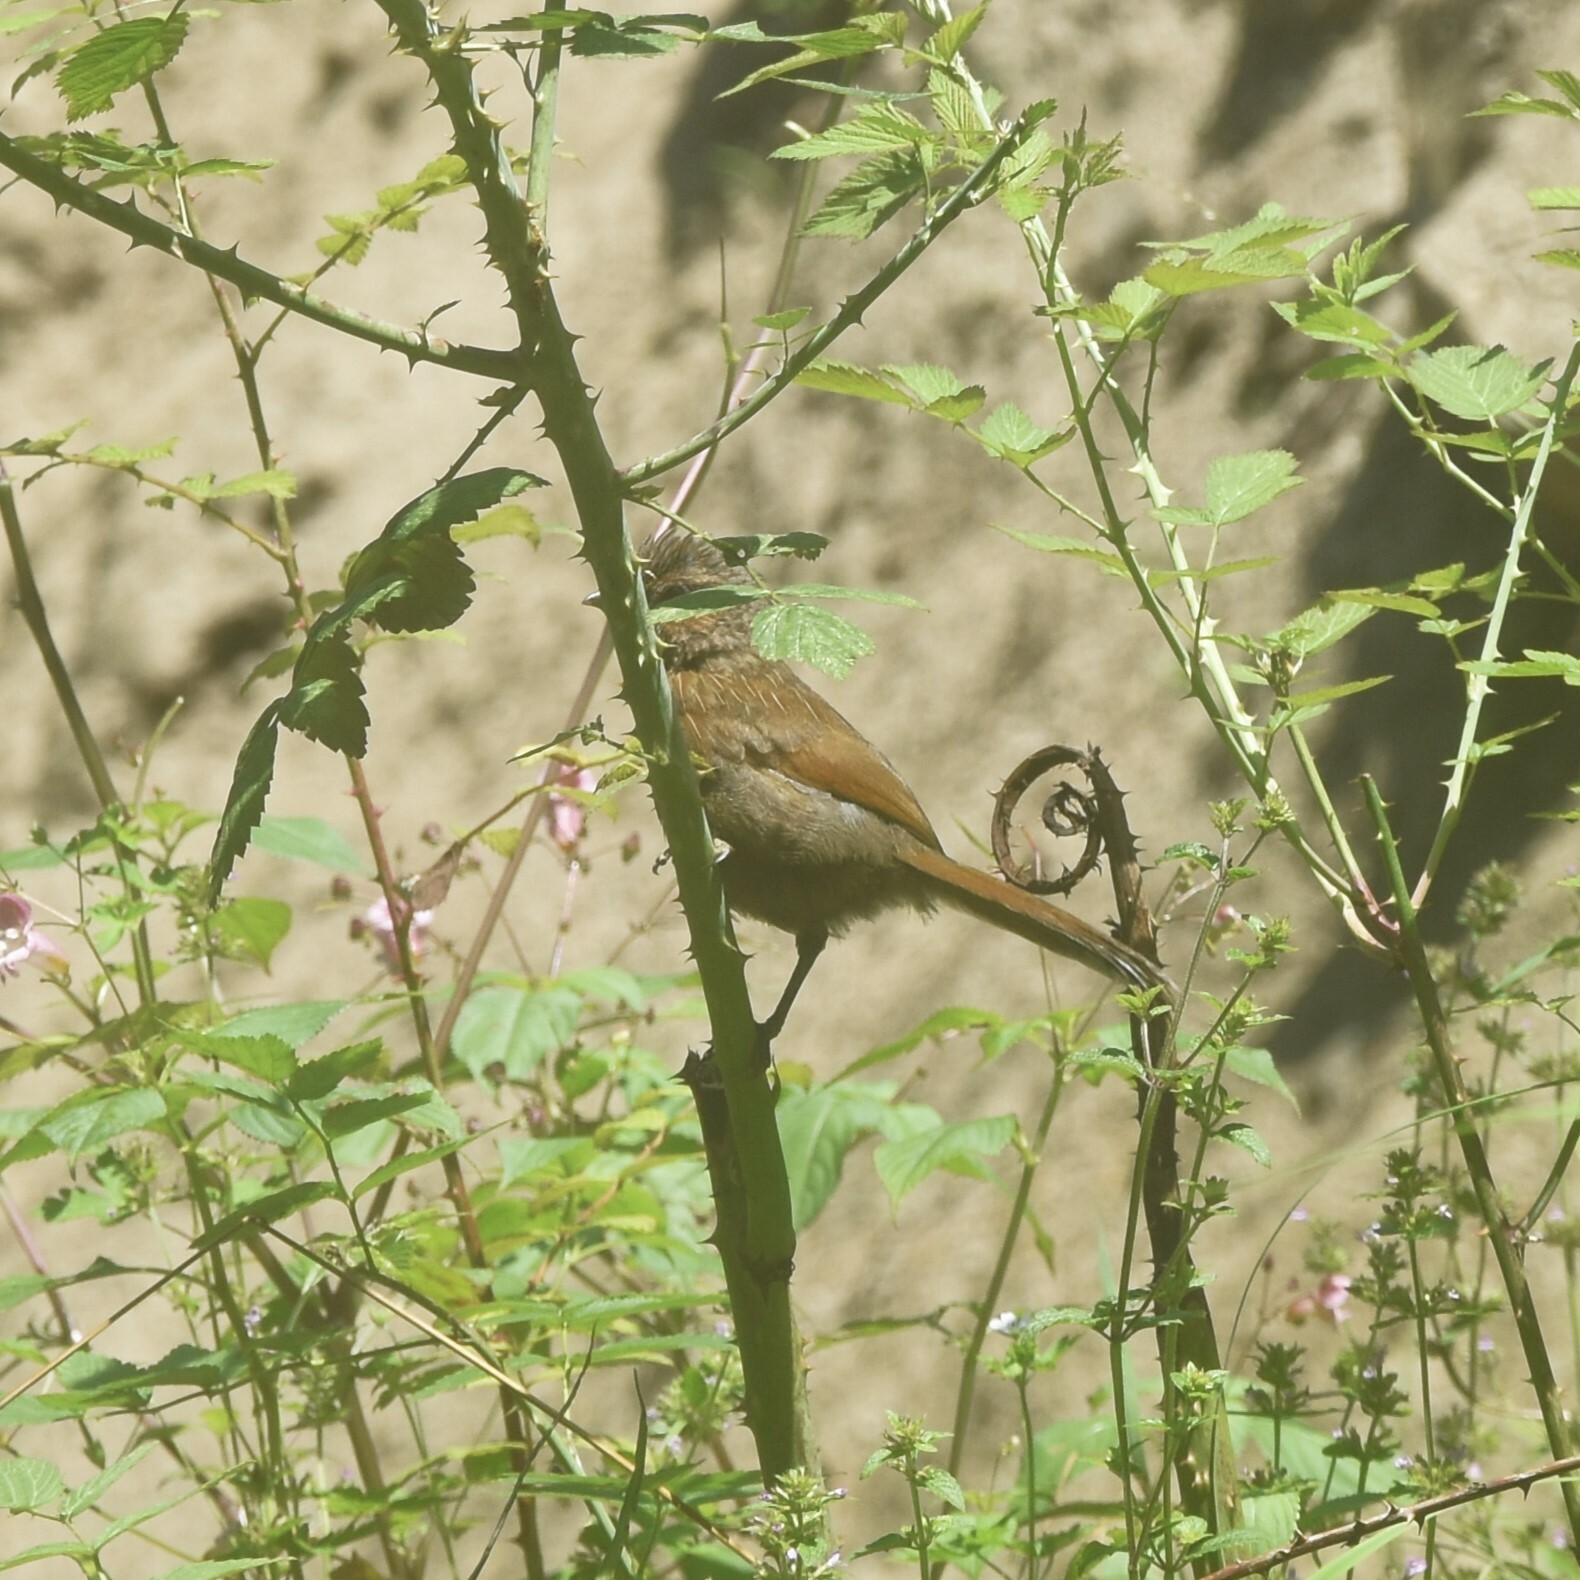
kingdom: Animalia
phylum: Chordata
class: Aves
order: Passeriformes
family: Leiothrichidae
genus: Trochalopteron
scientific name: Trochalopteron lineatum
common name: Streaked laughingthrush
